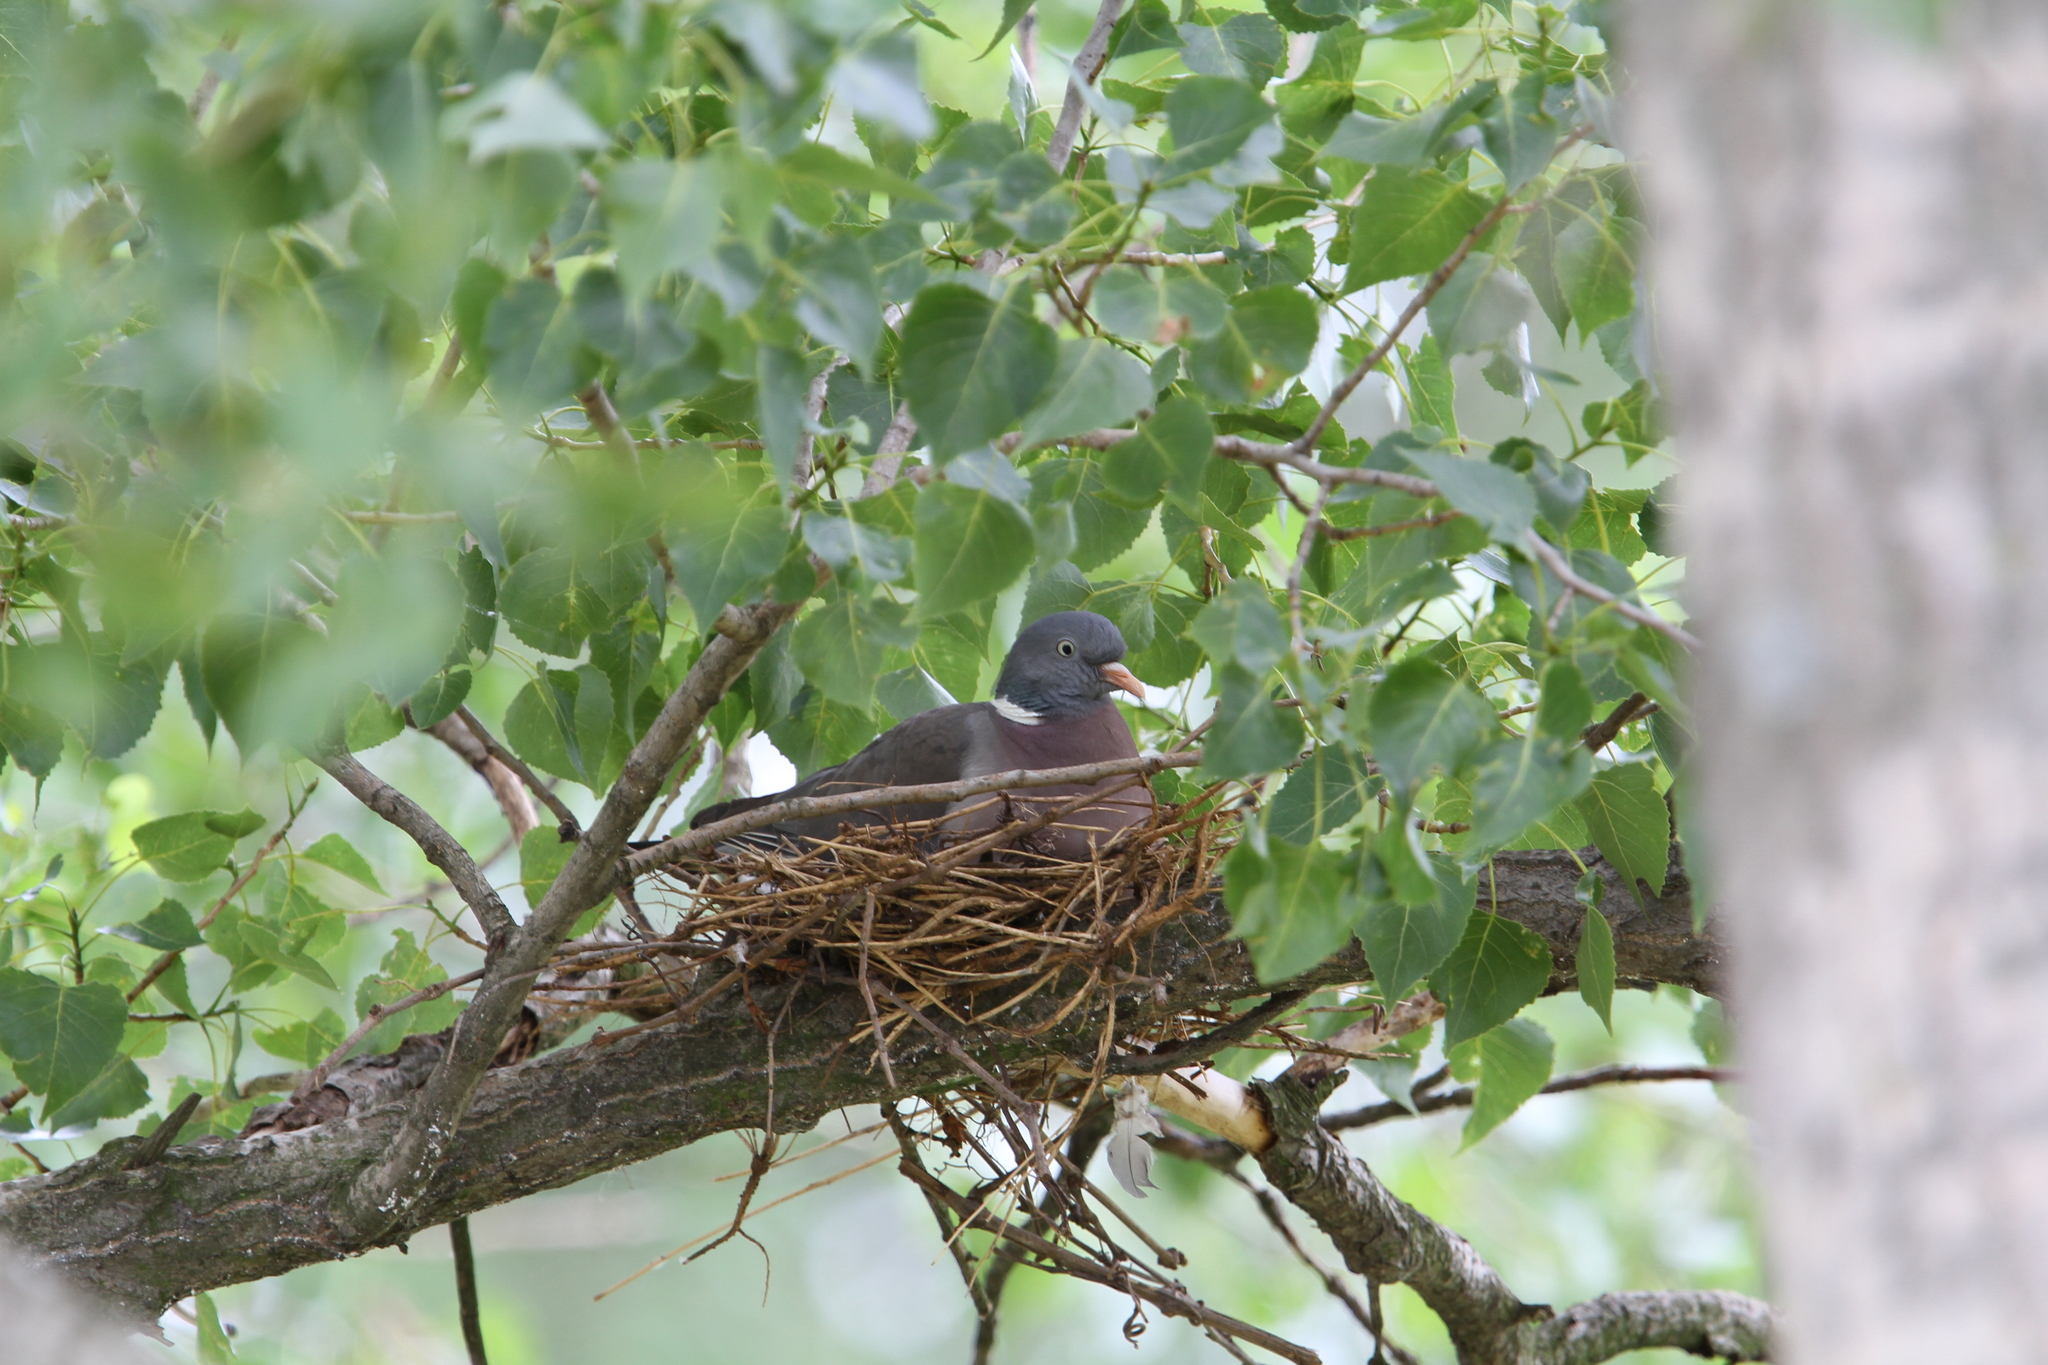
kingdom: Animalia
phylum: Chordata
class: Aves
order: Columbiformes
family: Columbidae
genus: Columba
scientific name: Columba palumbus
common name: Common wood pigeon
